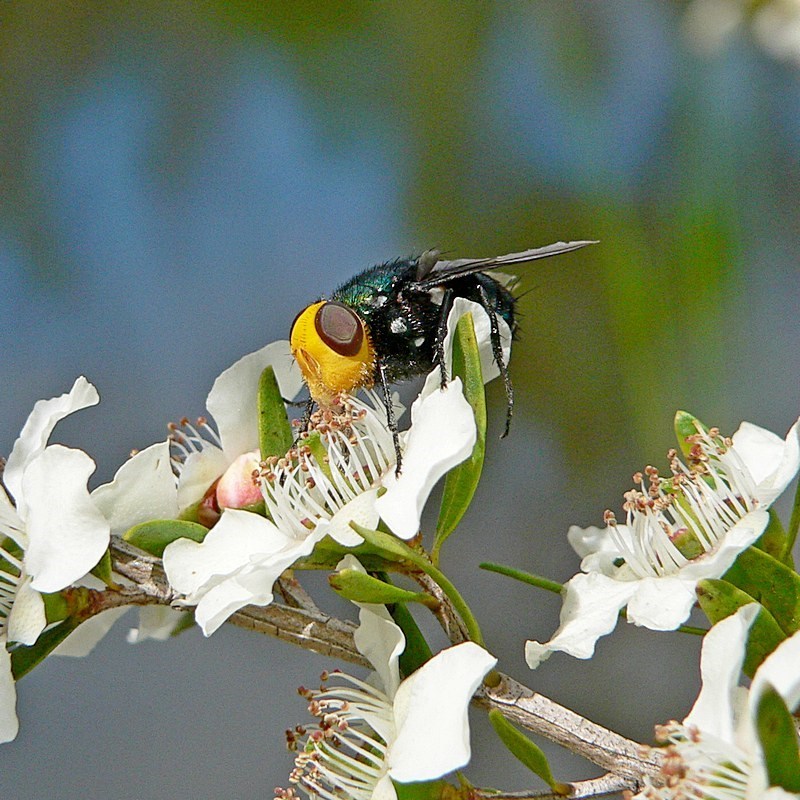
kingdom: Animalia
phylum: Arthropoda
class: Insecta
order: Diptera
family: Calliphoridae
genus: Amenia
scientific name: Amenia imperialis
